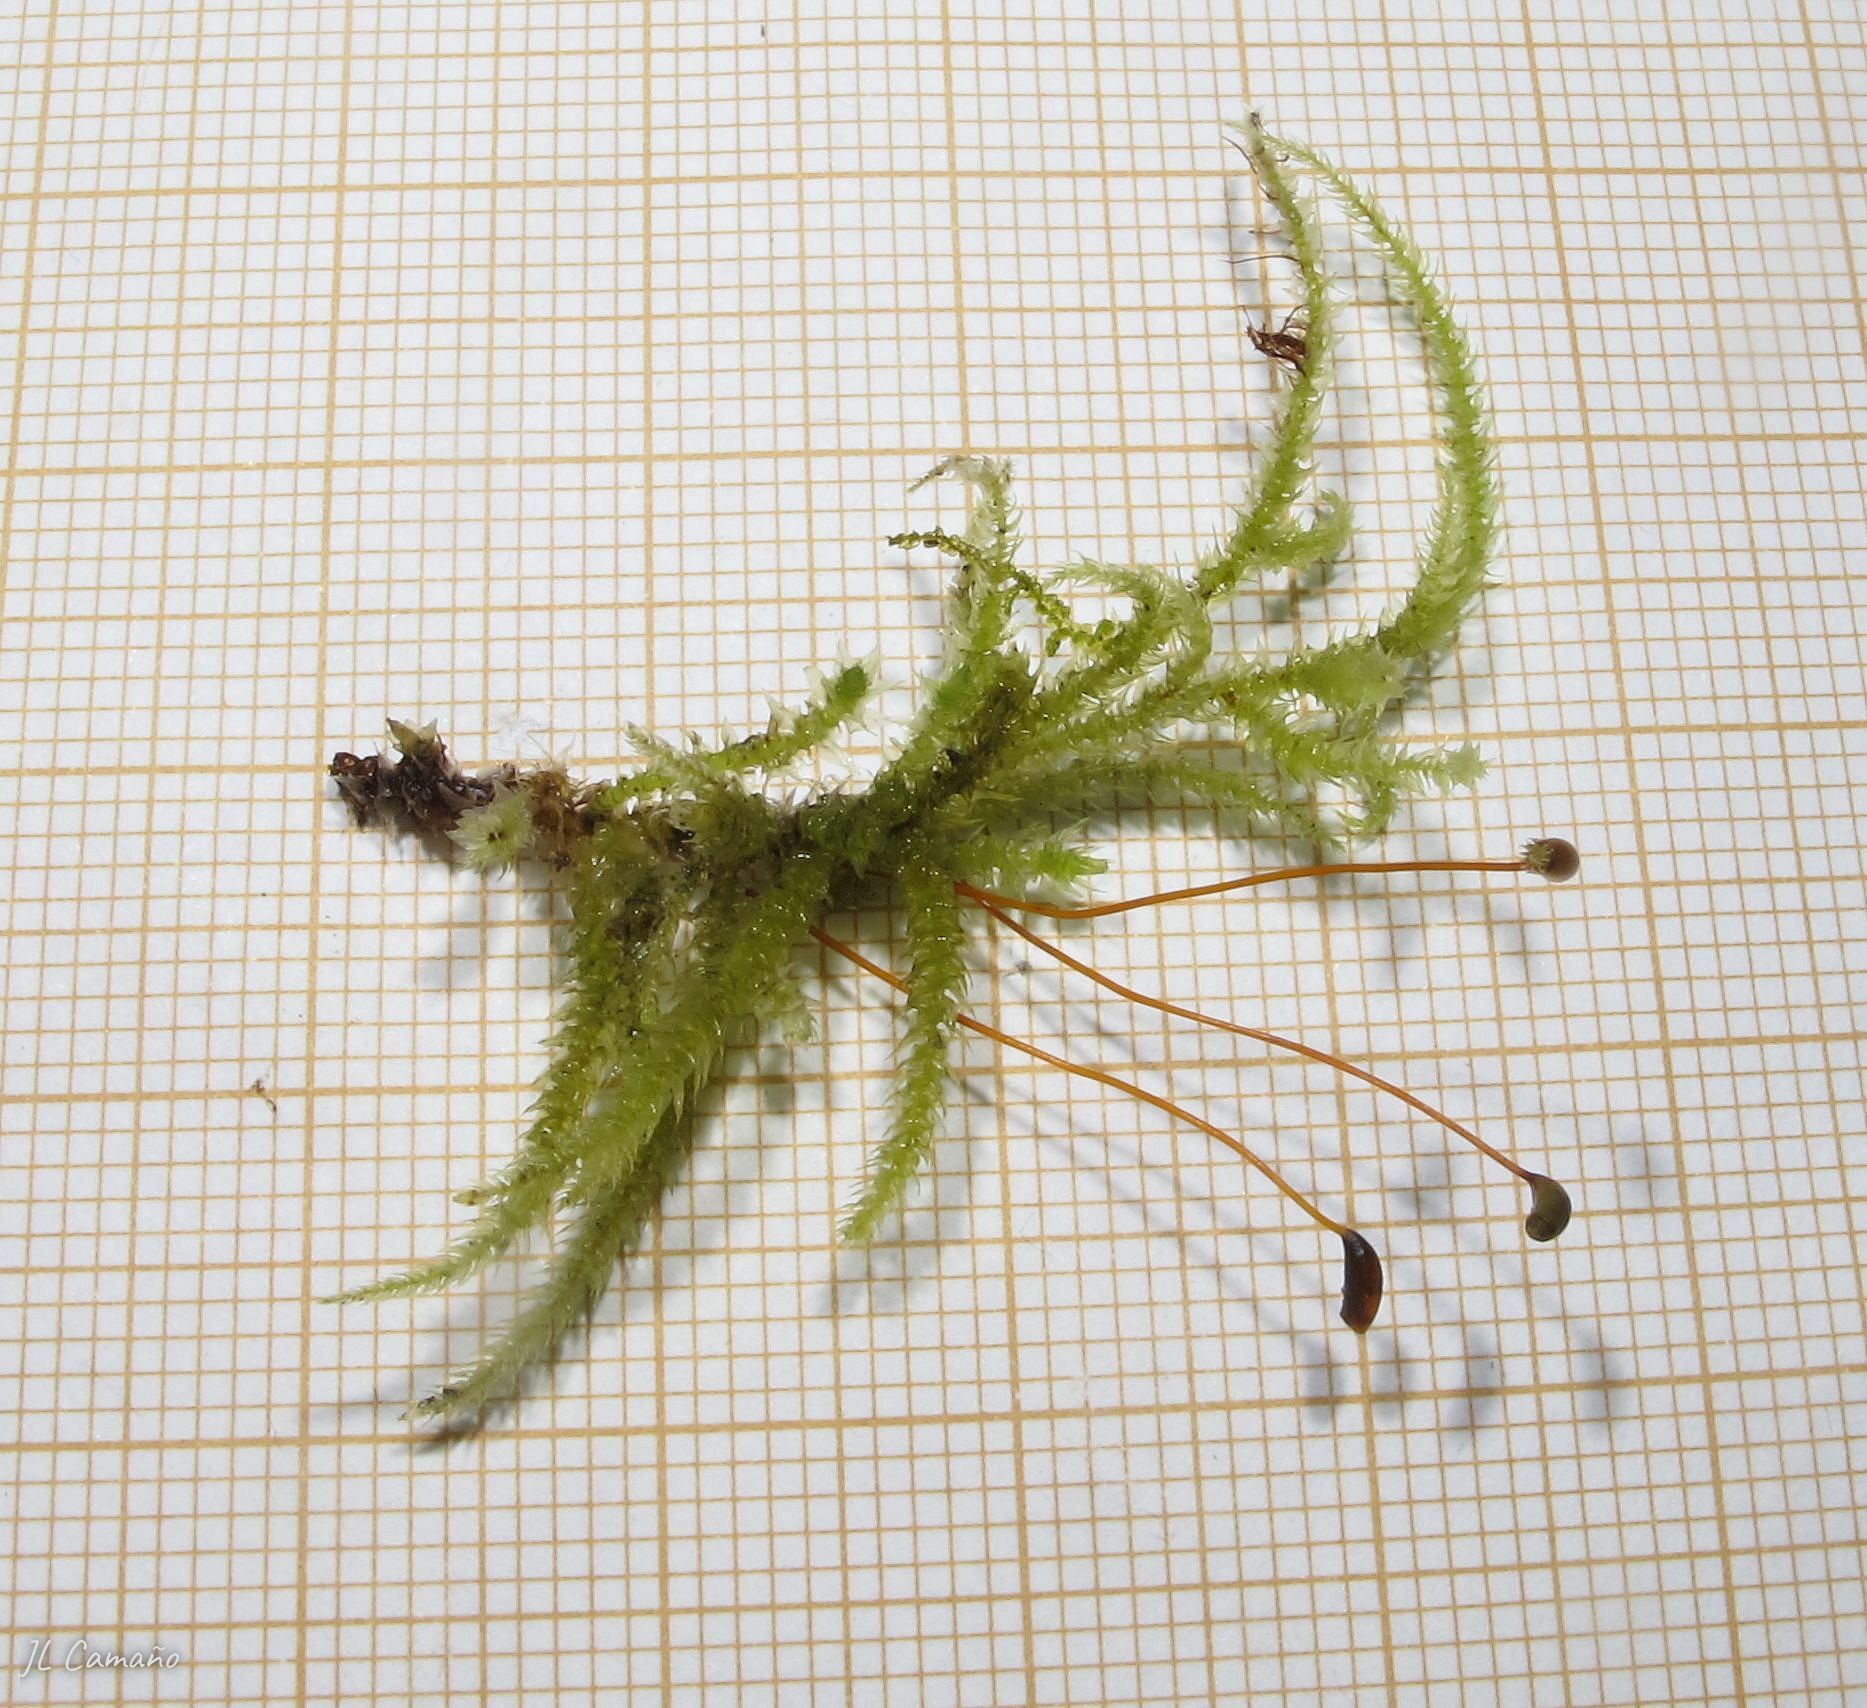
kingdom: Plantae
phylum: Bryophyta
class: Bryopsida
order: Hypnales
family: Brachytheciaceae
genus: Eurhynchium
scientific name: Eurhynchium striatum
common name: Common striated feather-moss
